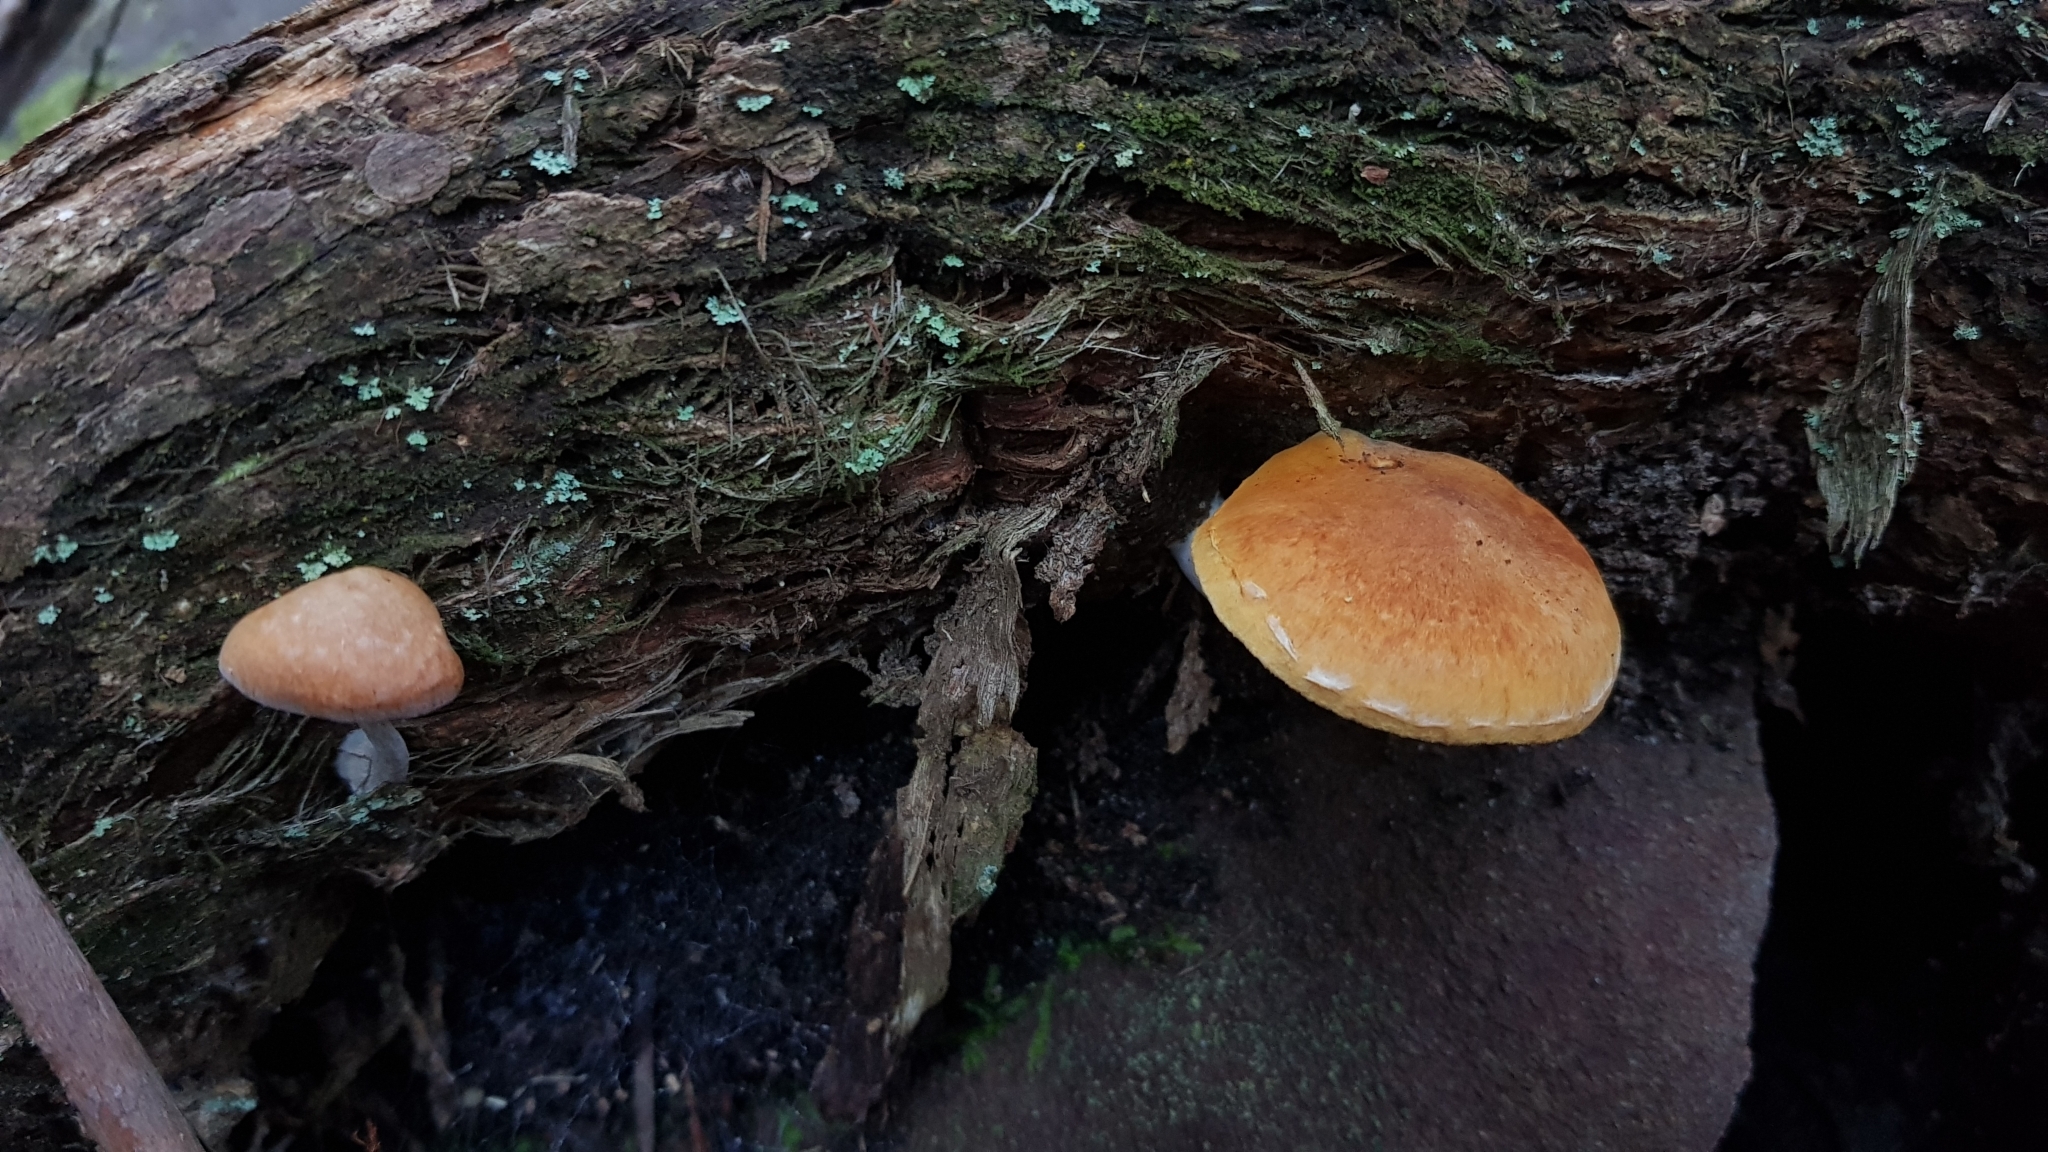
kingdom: Fungi
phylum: Basidiomycota
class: Agaricomycetes
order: Agaricales
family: Hymenogastraceae
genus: Gymnopilus
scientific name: Gymnopilus allantopus
